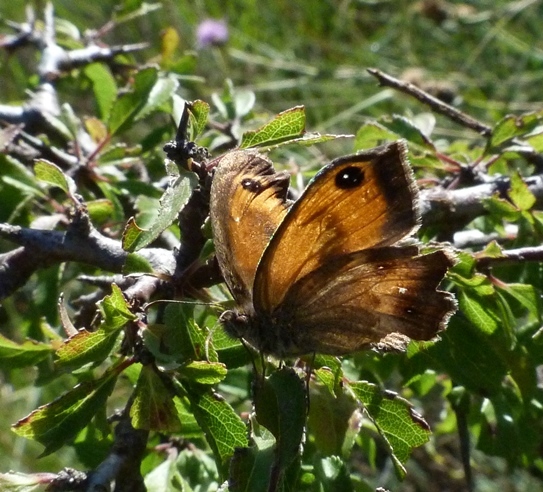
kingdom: Animalia
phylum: Arthropoda
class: Insecta
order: Lepidoptera
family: Nymphalidae
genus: Pyronia
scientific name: Pyronia tithonus
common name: Gatekeeper
